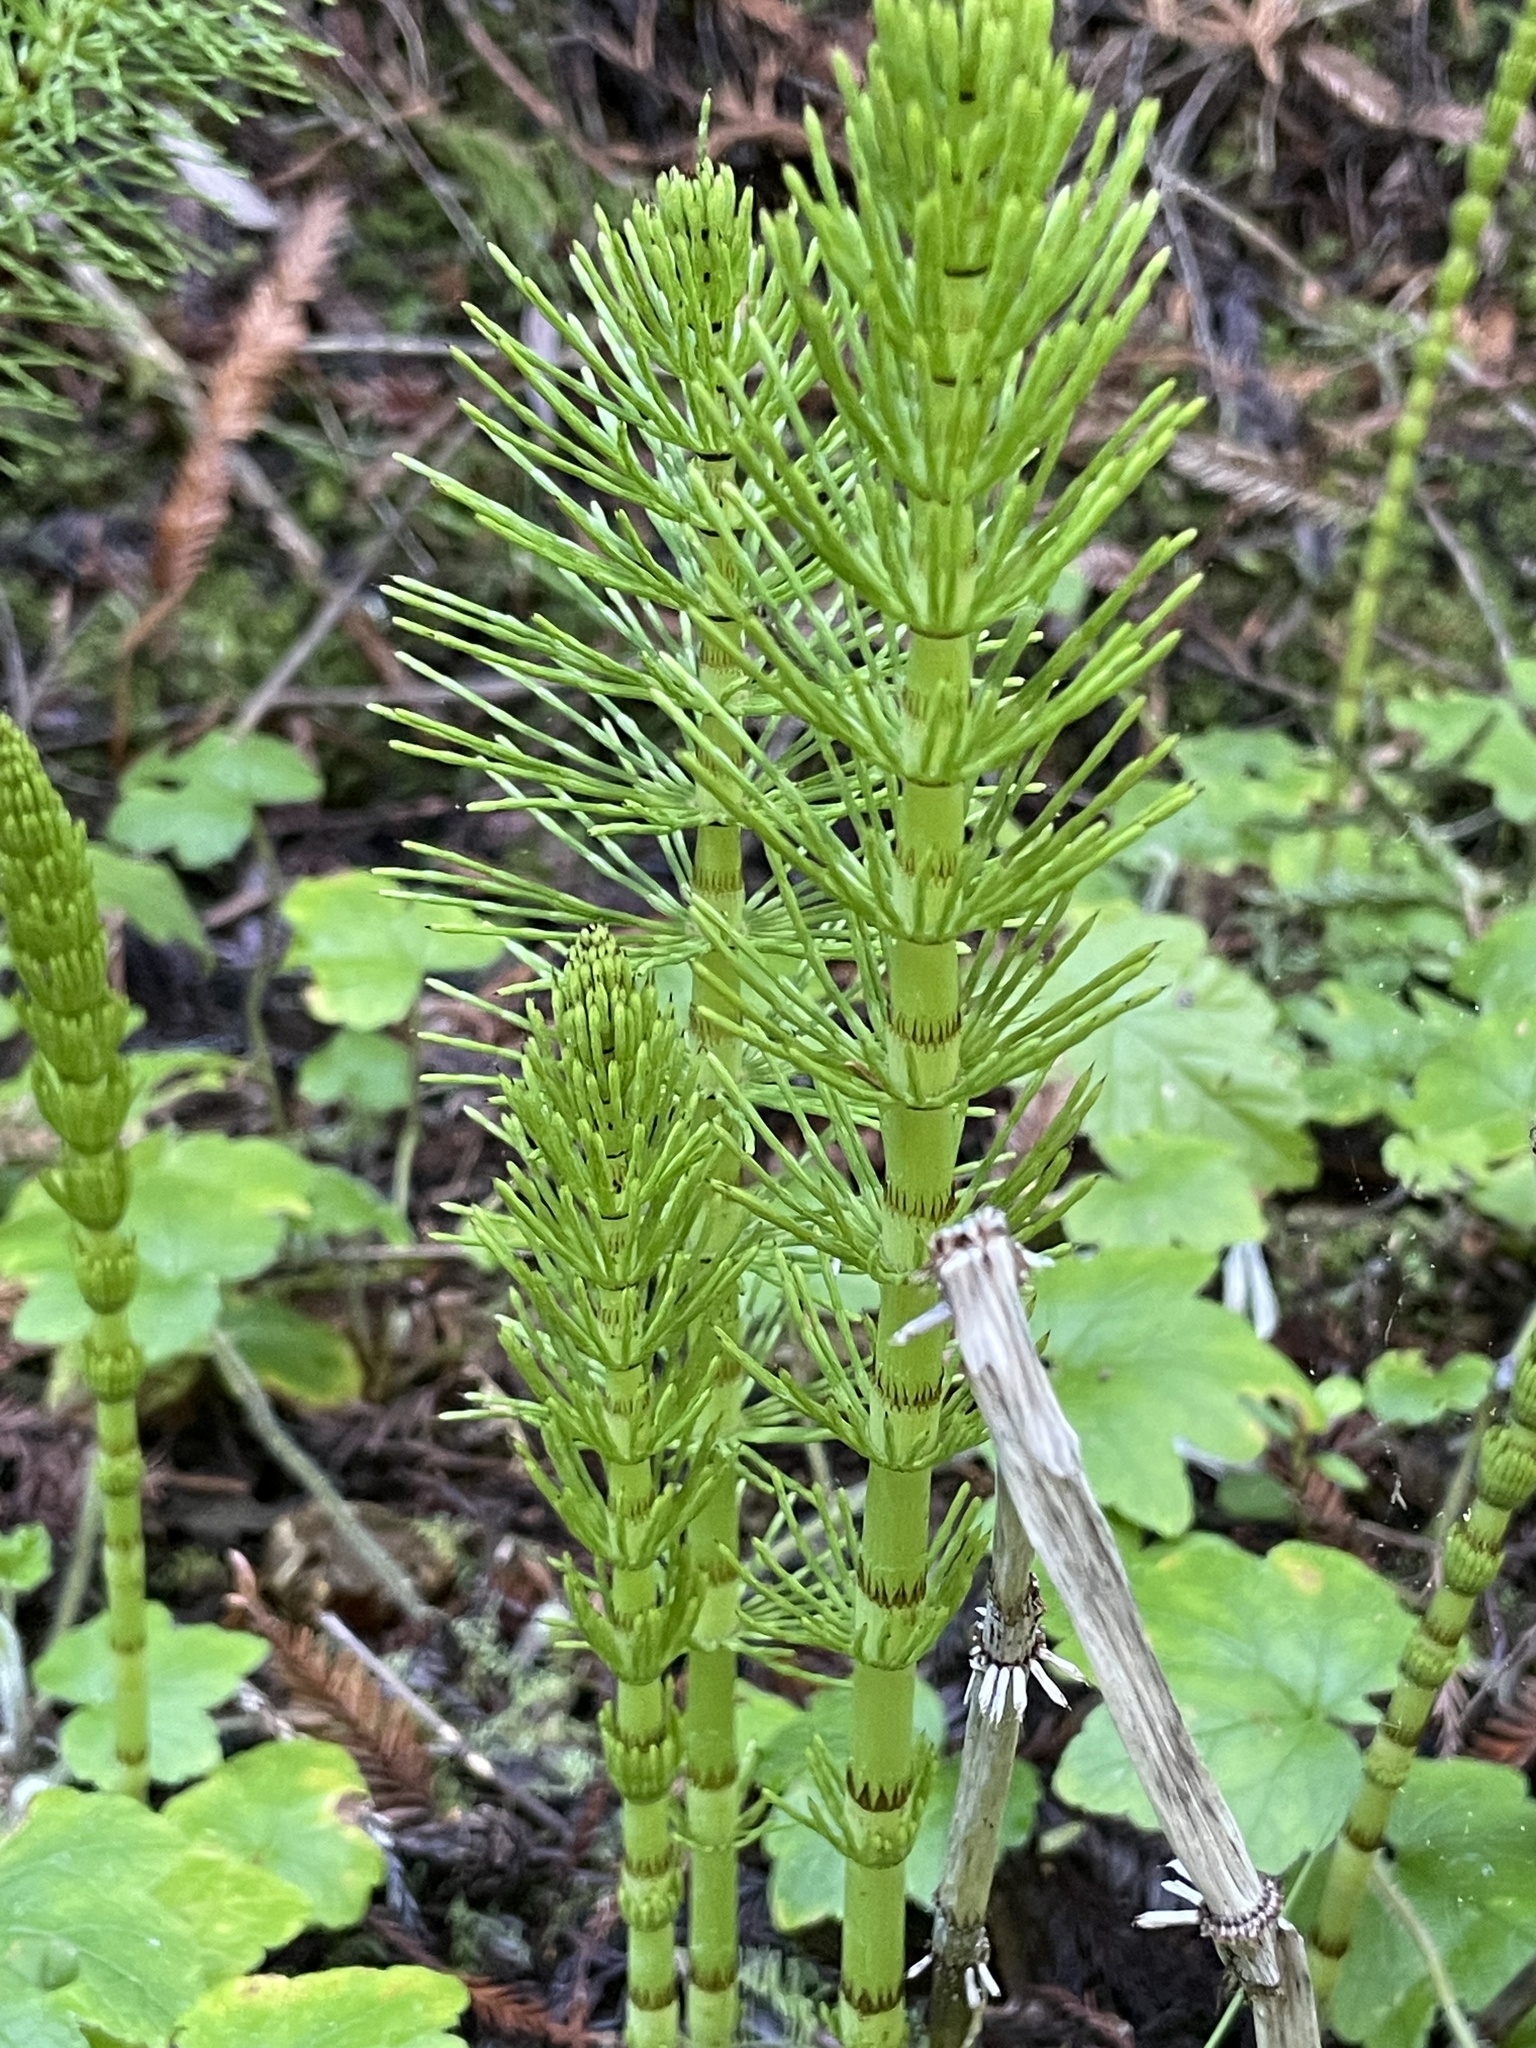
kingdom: Plantae
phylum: Tracheophyta
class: Polypodiopsida
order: Equisetales
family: Equisetaceae
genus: Equisetum
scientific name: Equisetum telmateia
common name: Great horsetail
